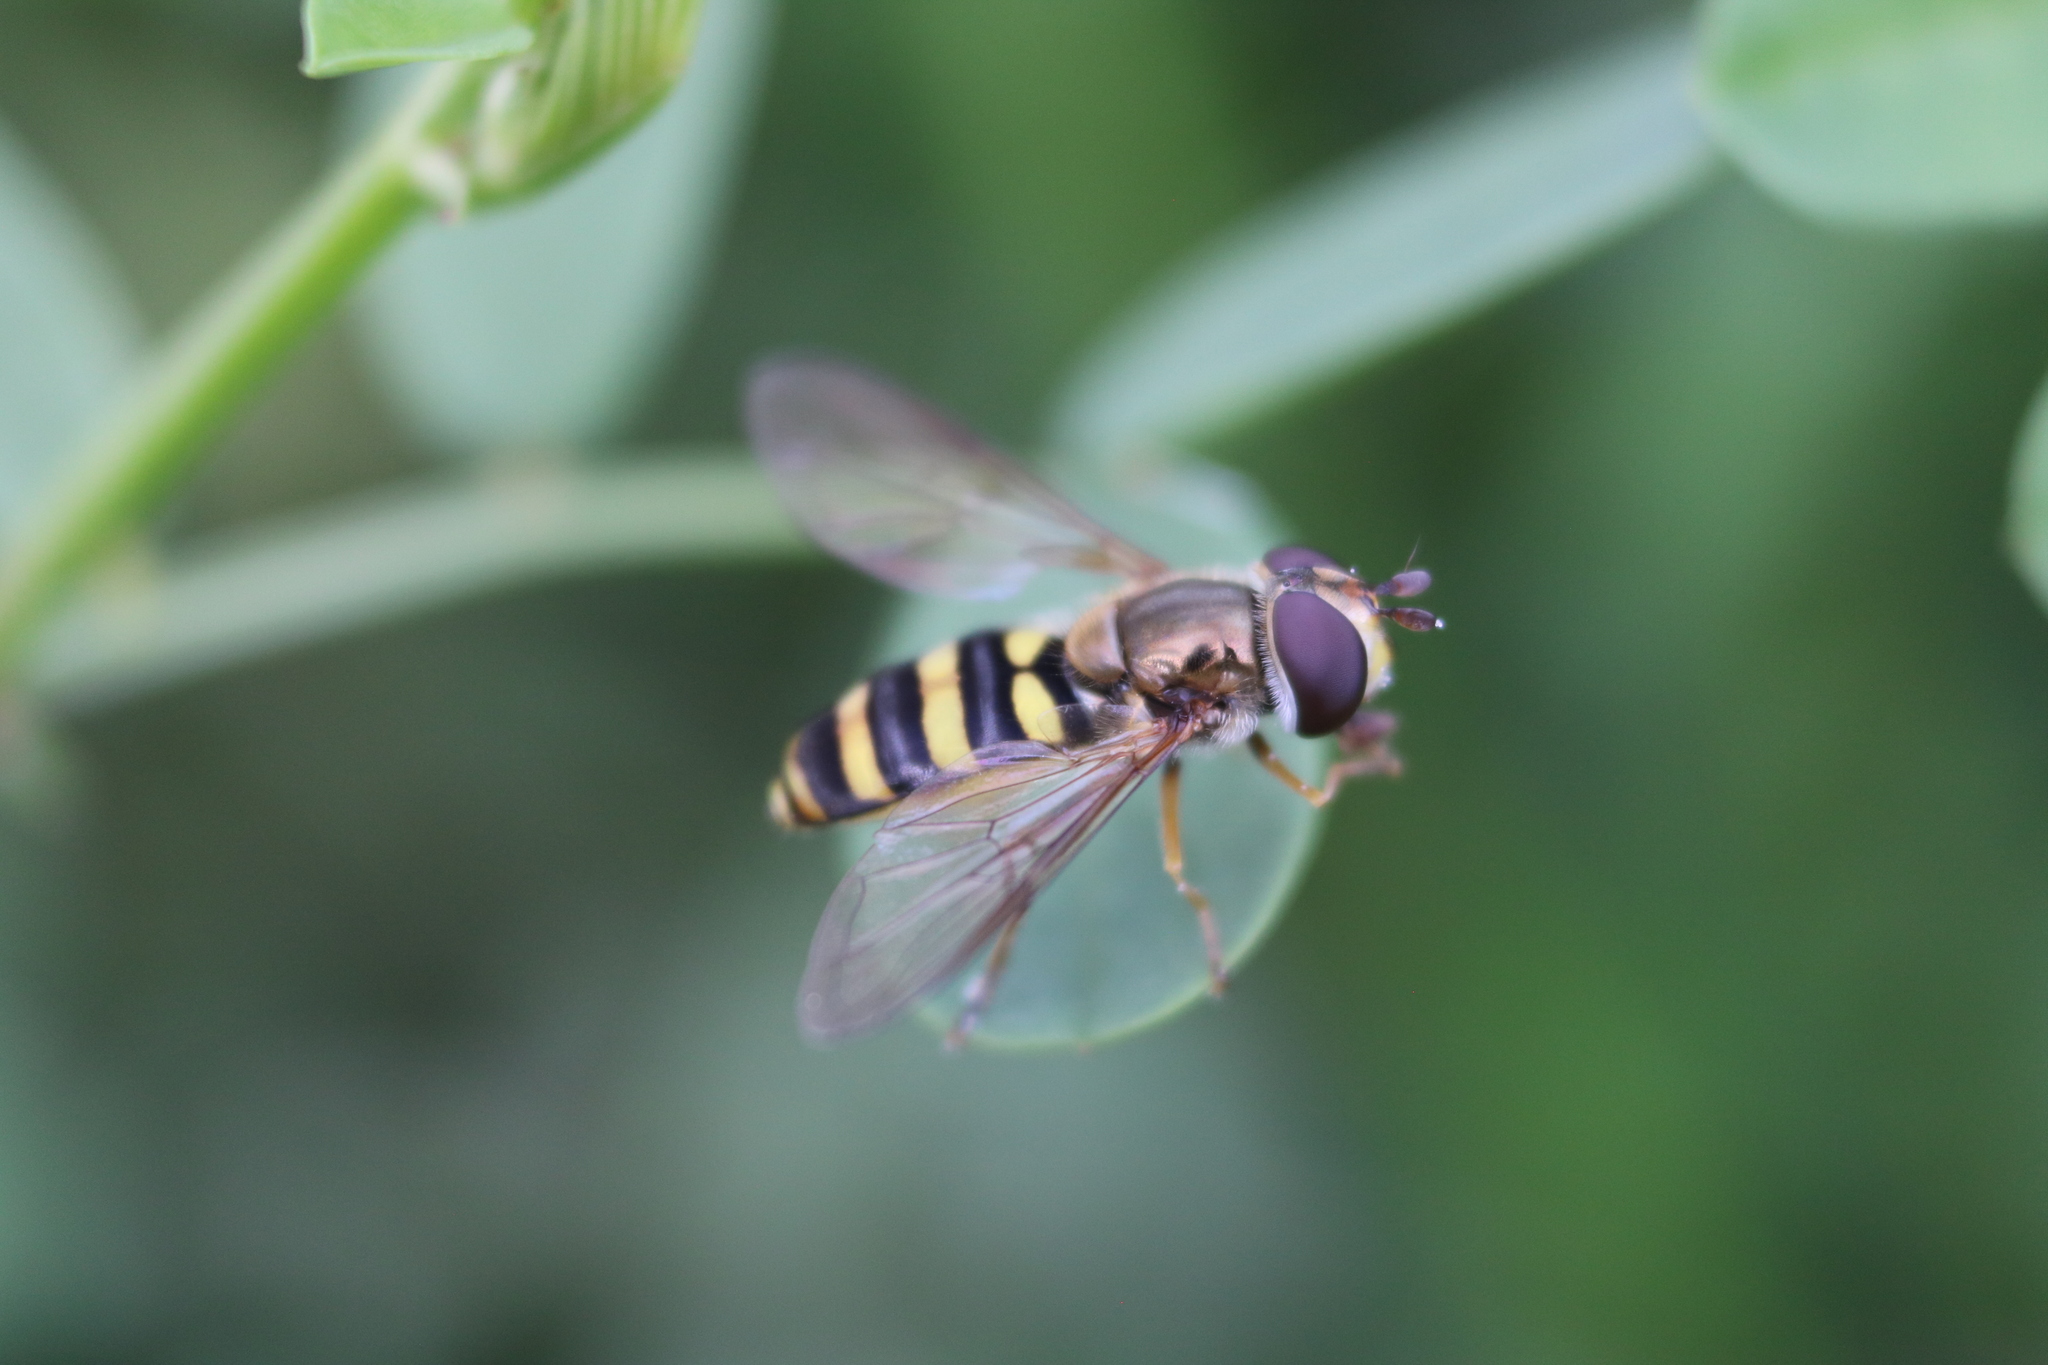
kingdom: Animalia
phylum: Arthropoda
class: Insecta
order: Diptera
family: Syrphidae
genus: Eupeodes
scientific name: Eupeodes
